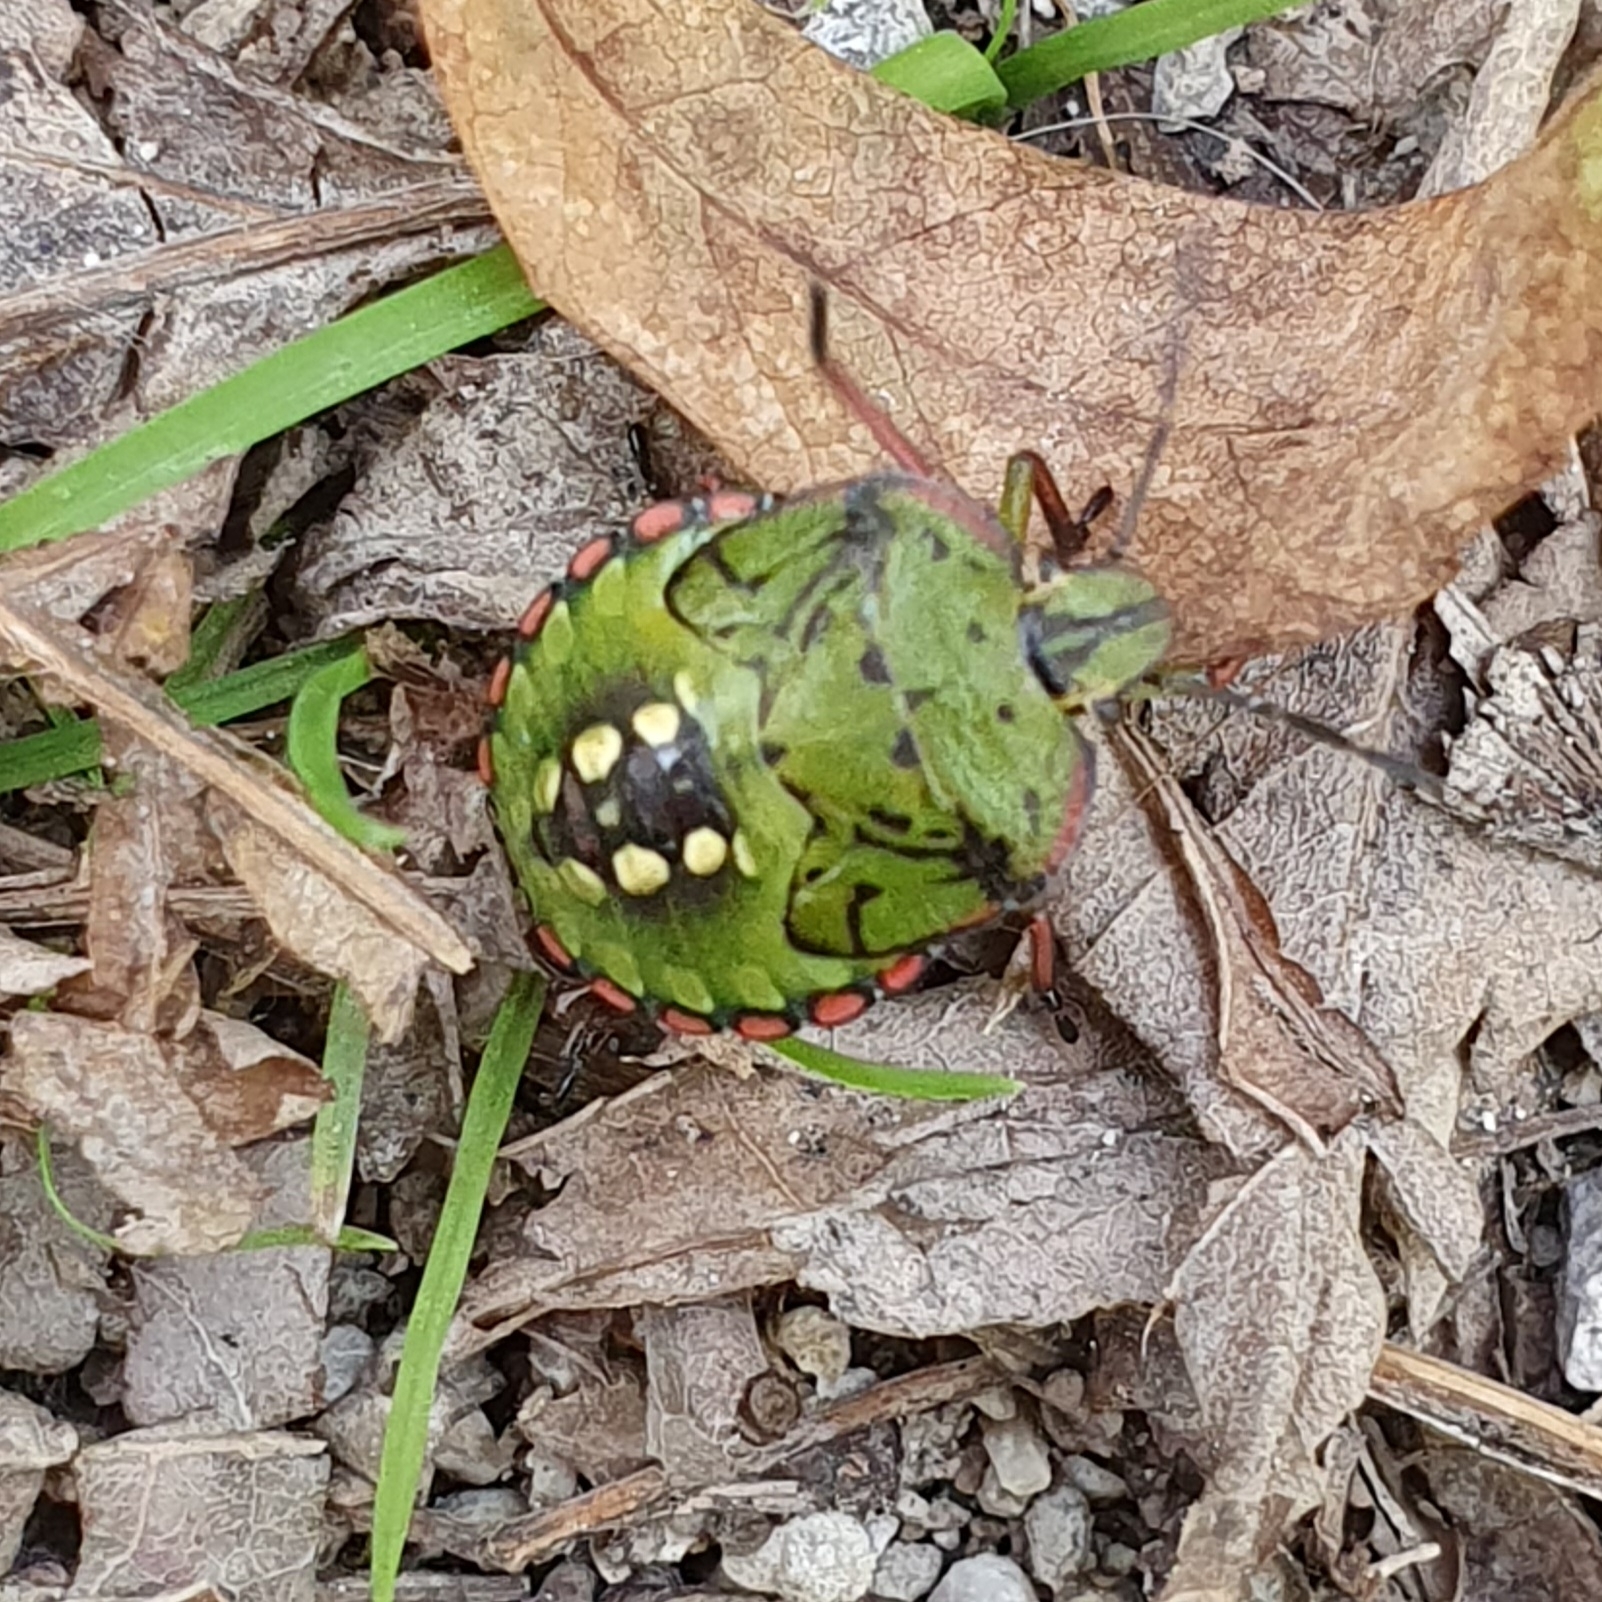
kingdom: Animalia
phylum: Arthropoda
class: Insecta
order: Hemiptera
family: Pentatomidae
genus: Nezara
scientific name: Nezara viridula
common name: Southern green stink bug
